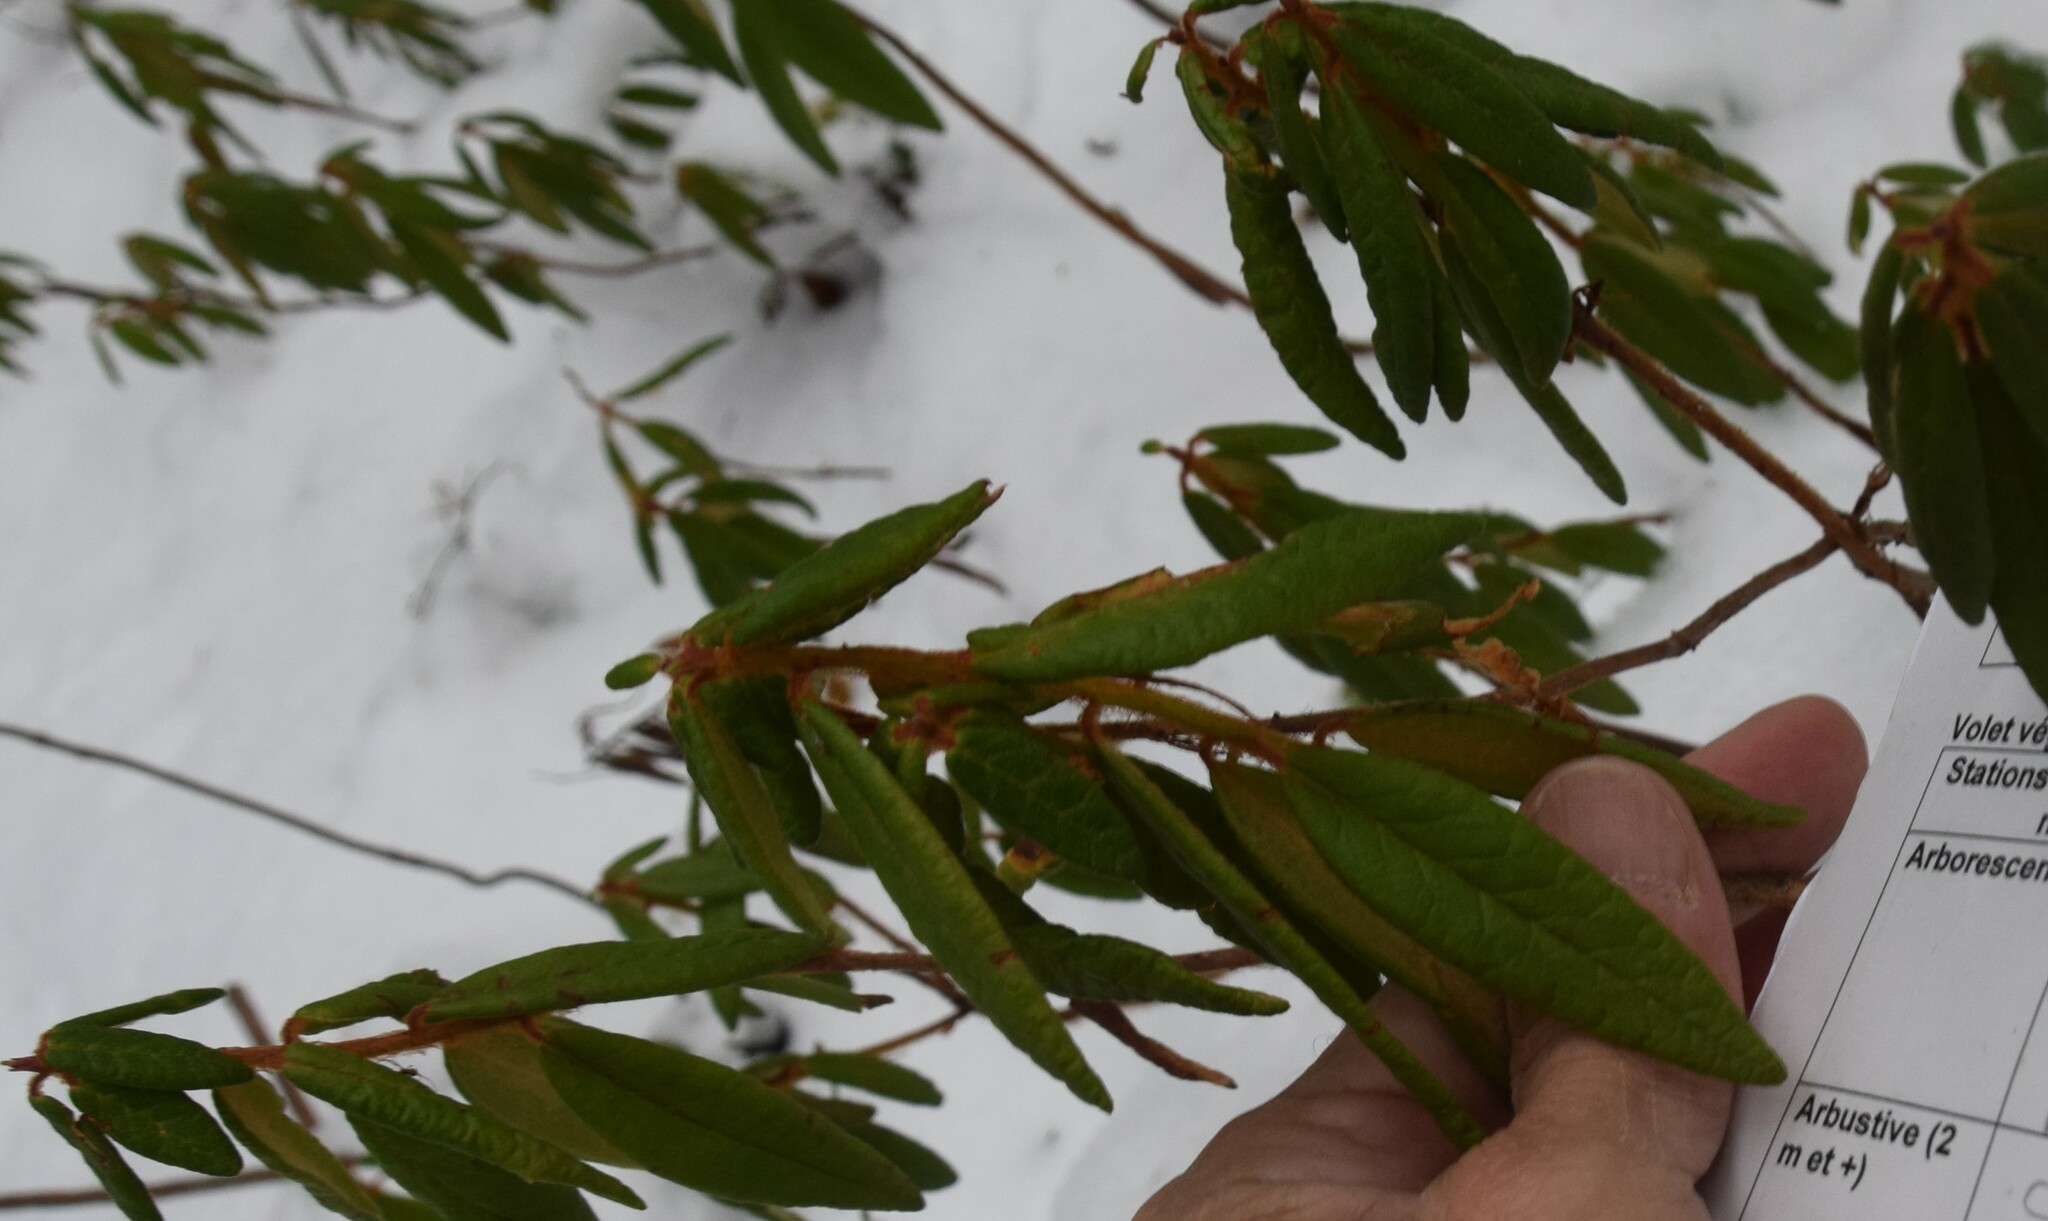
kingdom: Plantae
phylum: Tracheophyta
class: Magnoliopsida
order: Ericales
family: Ericaceae
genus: Rhododendron
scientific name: Rhododendron groenlandicum
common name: Bog labrador tea
